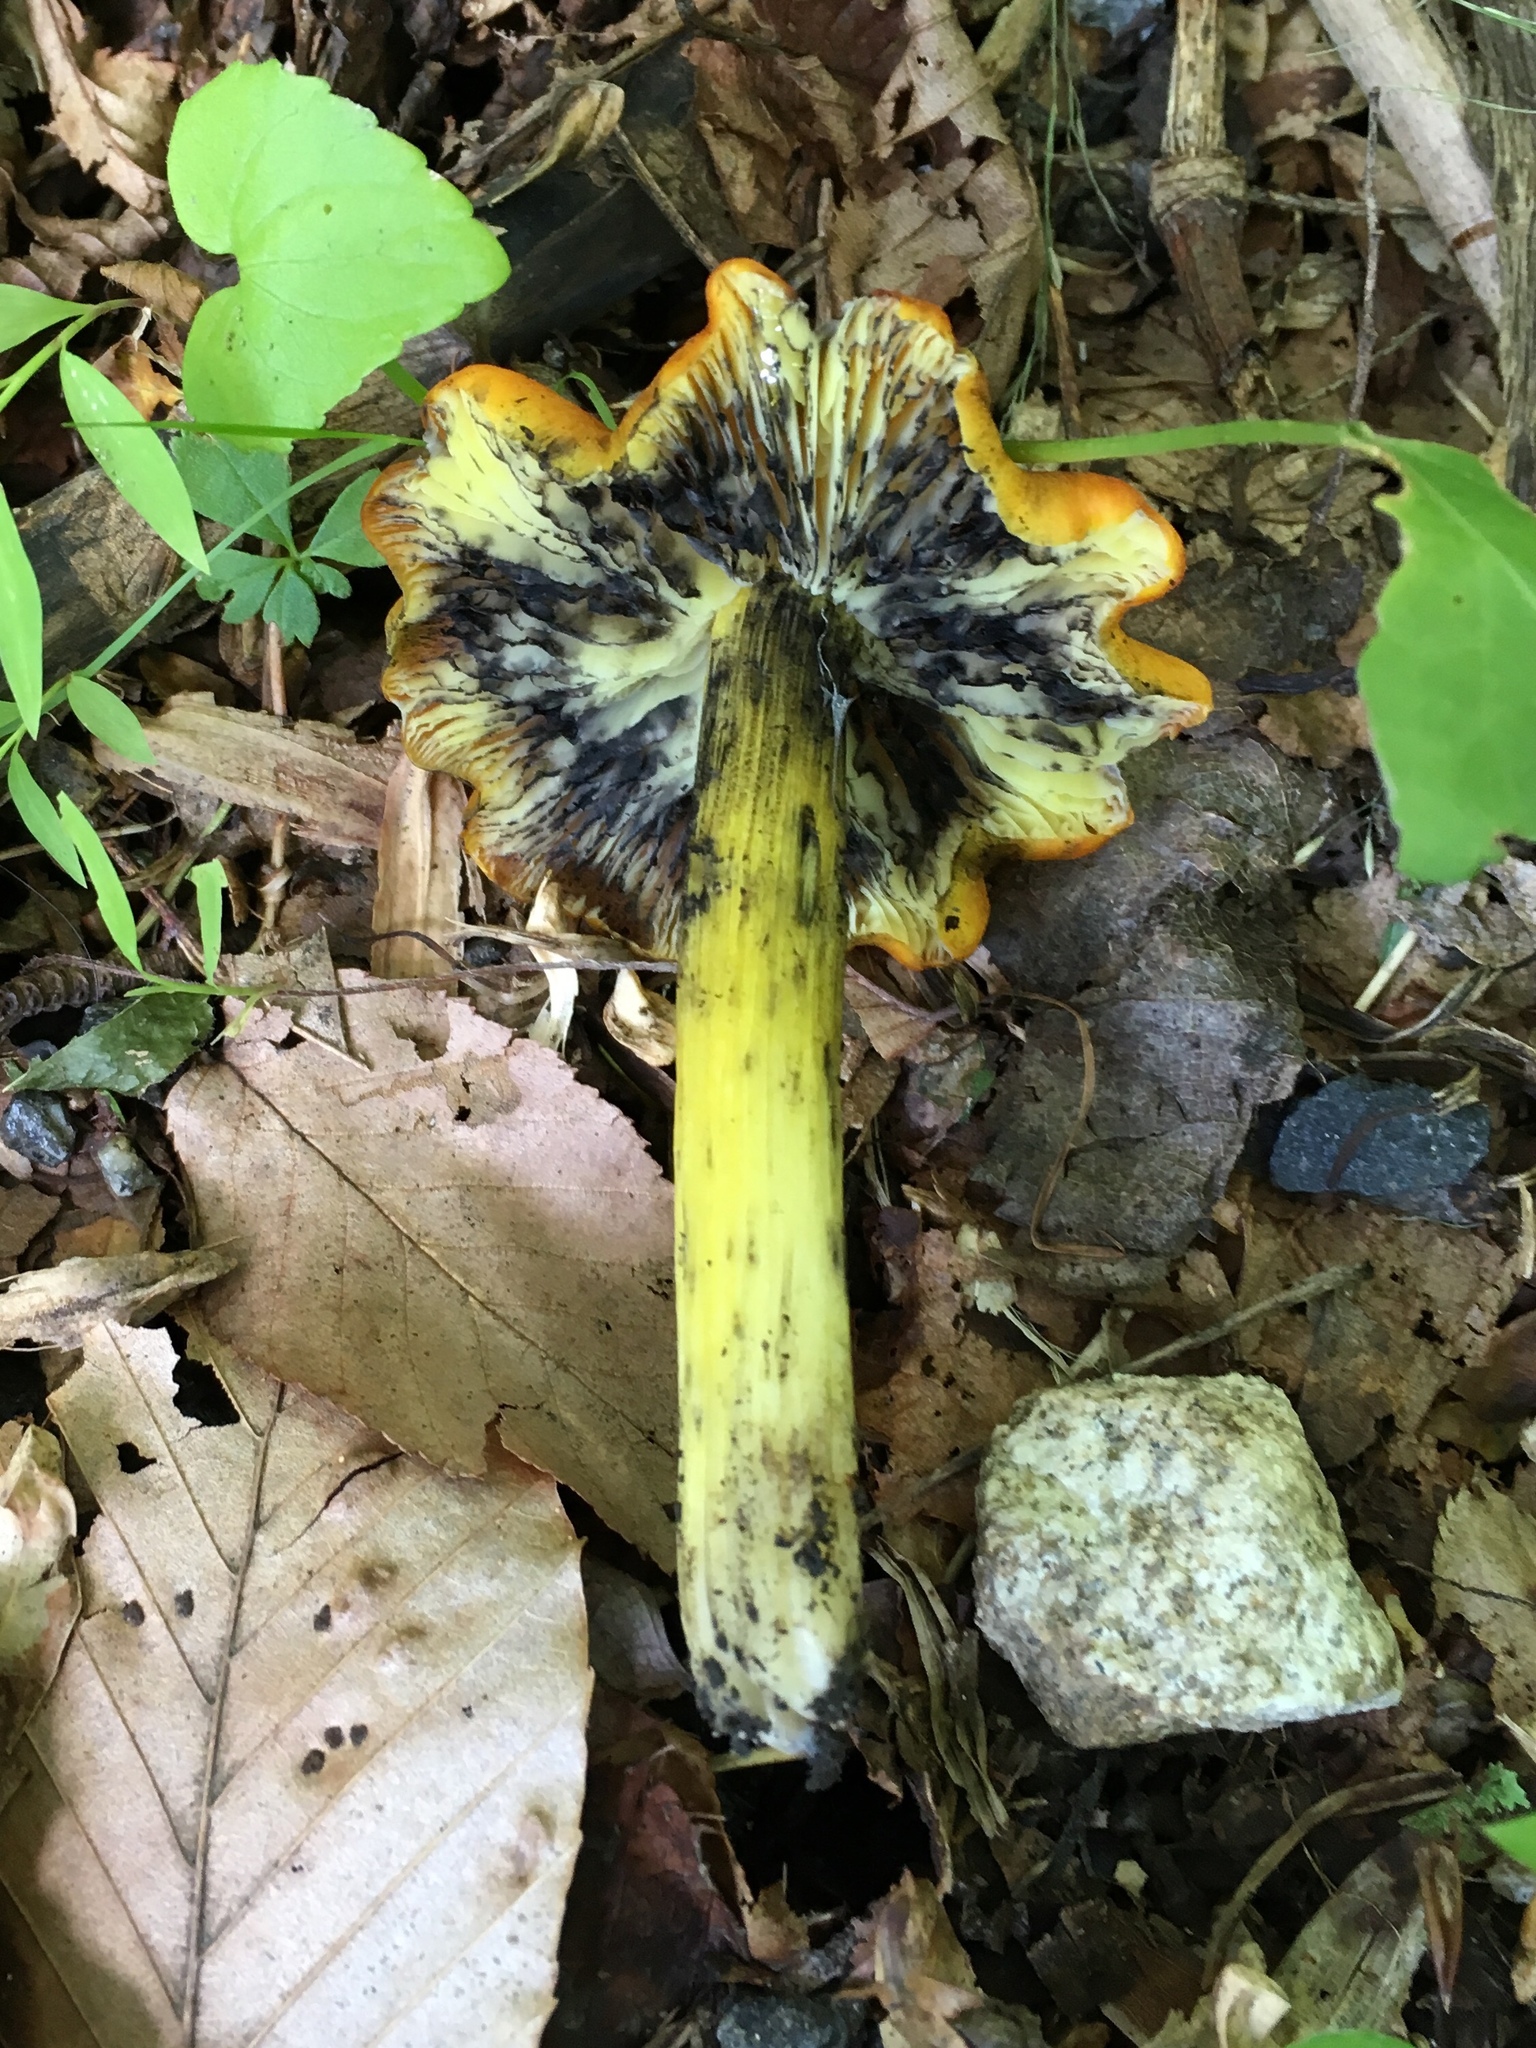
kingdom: Fungi
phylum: Basidiomycota
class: Agaricomycetes
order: Agaricales
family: Hygrophoraceae
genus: Hygrocybe
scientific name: Hygrocybe conica
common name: Blackening wax-cap
